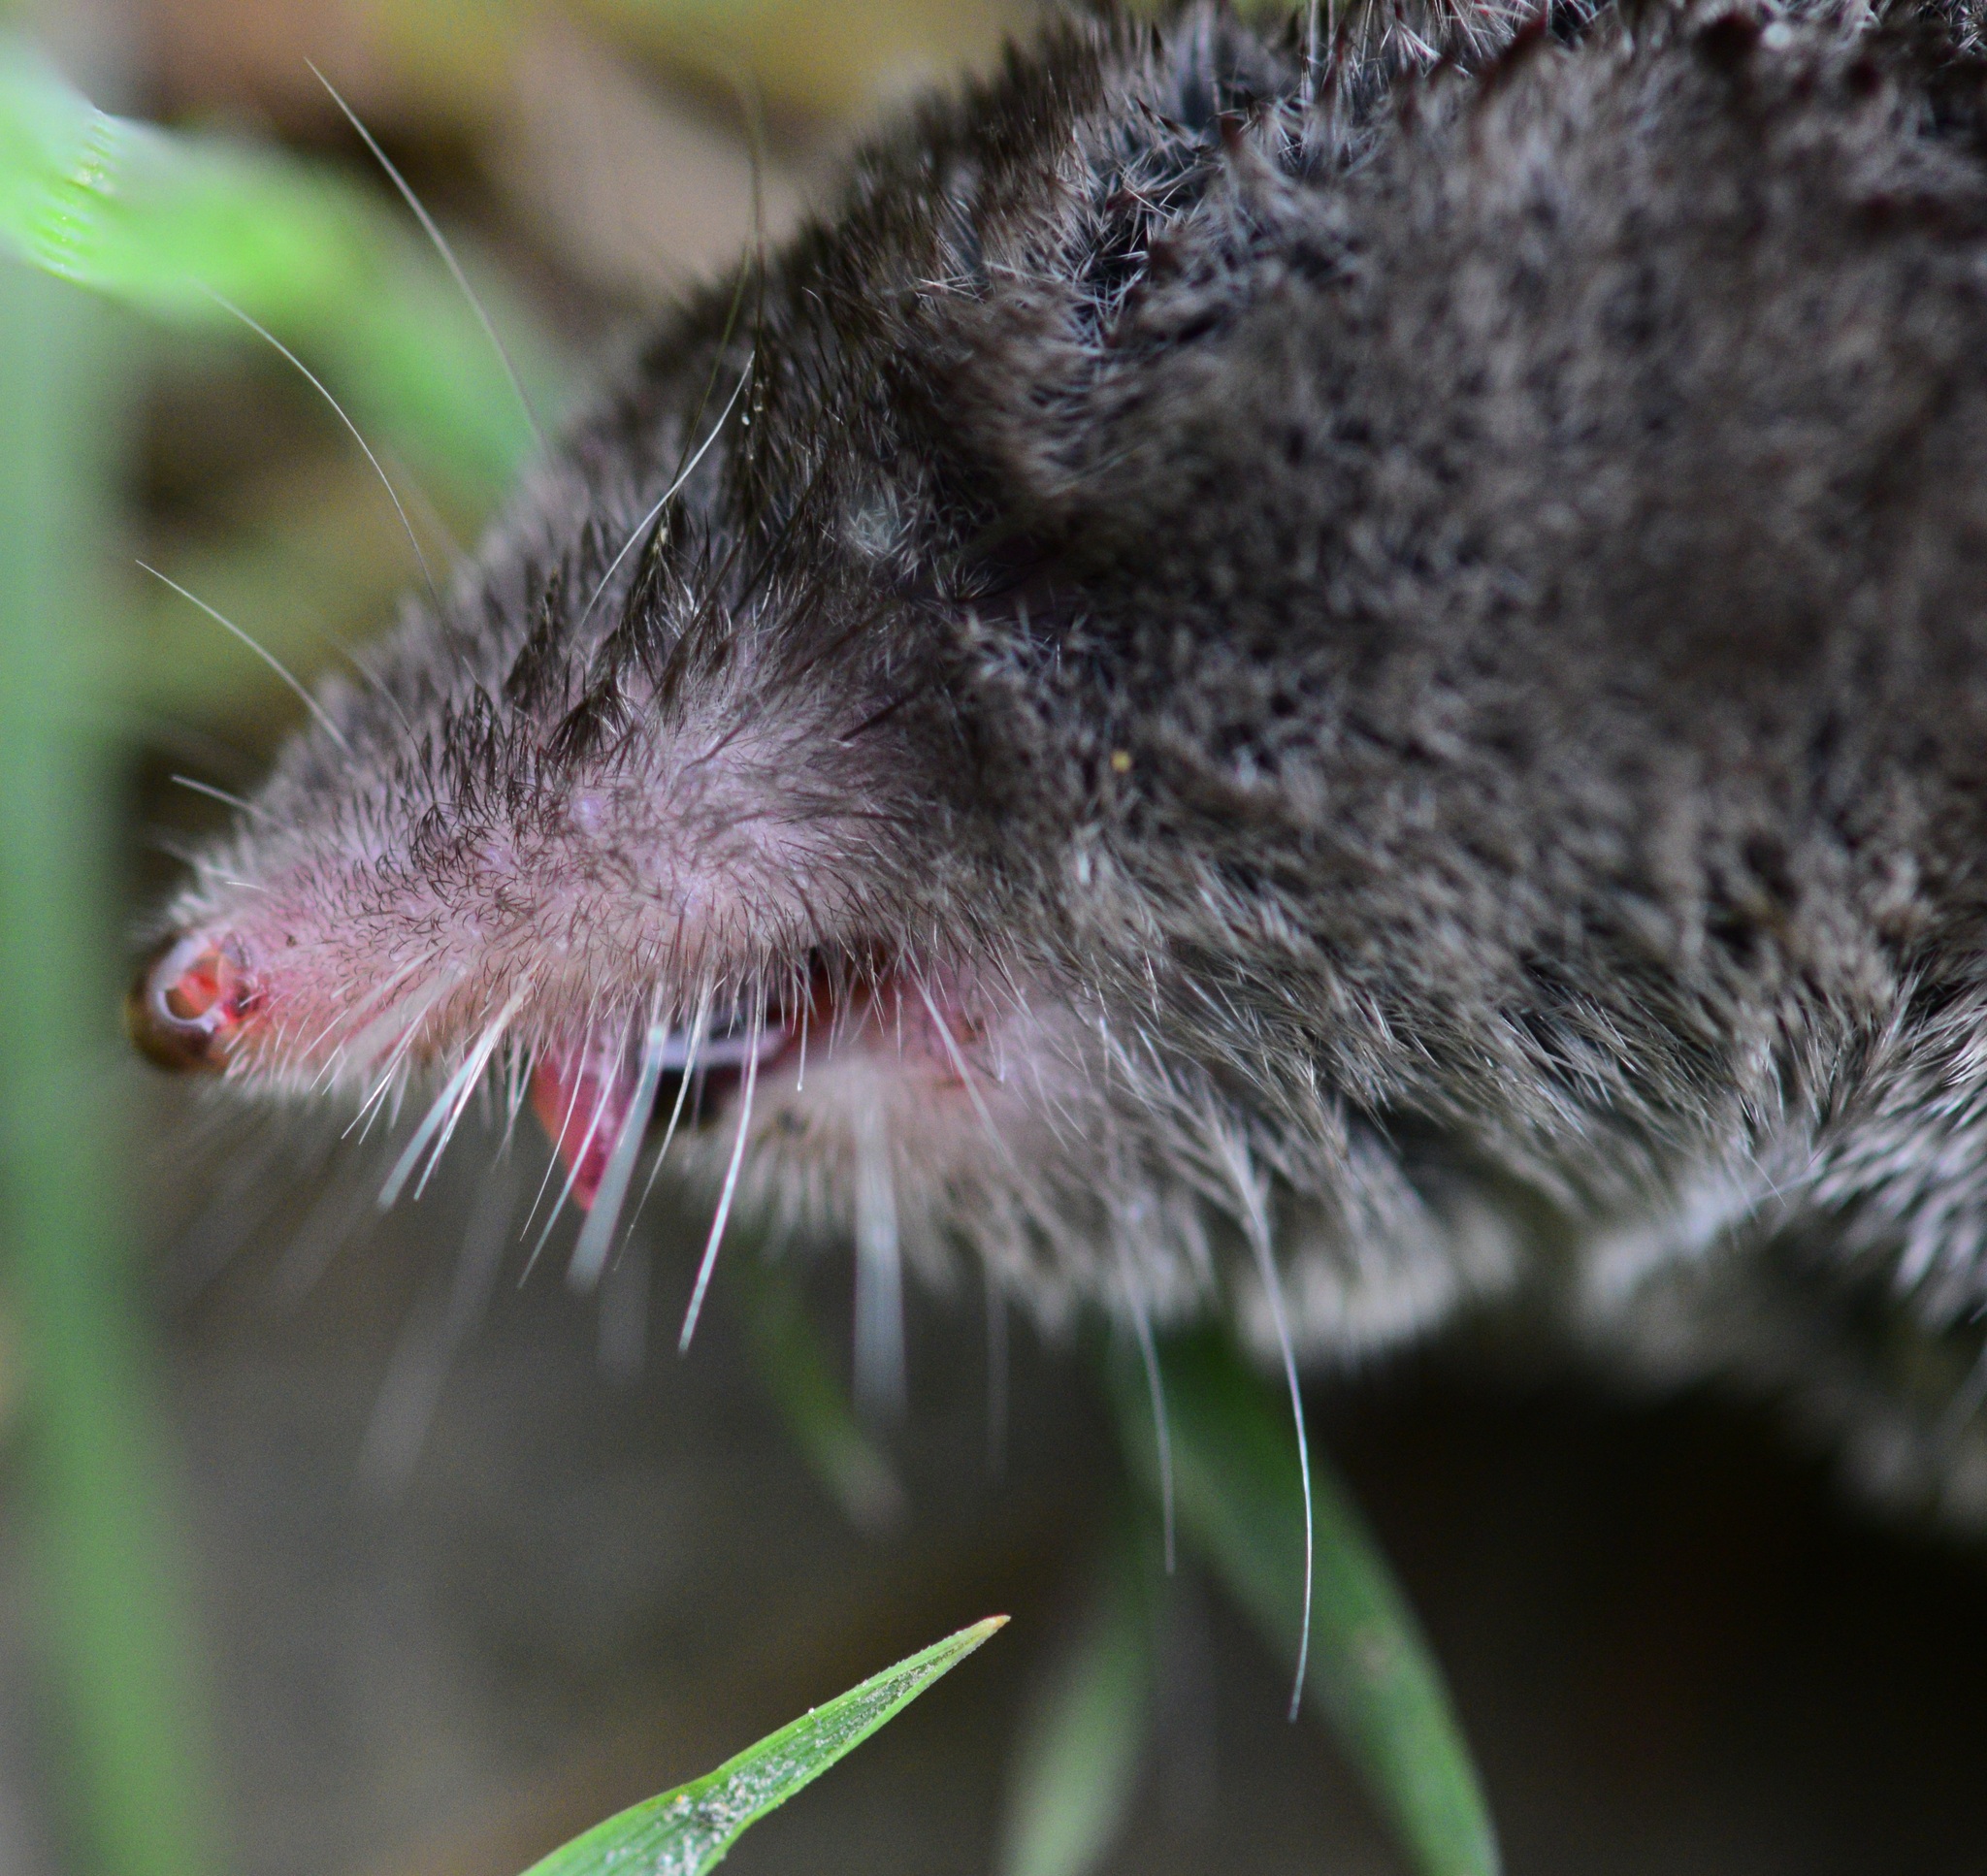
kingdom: Animalia
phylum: Chordata
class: Mammalia
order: Soricomorpha
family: Soricidae
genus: Blarina
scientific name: Blarina brevicauda
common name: Northern short-tailed shrew
